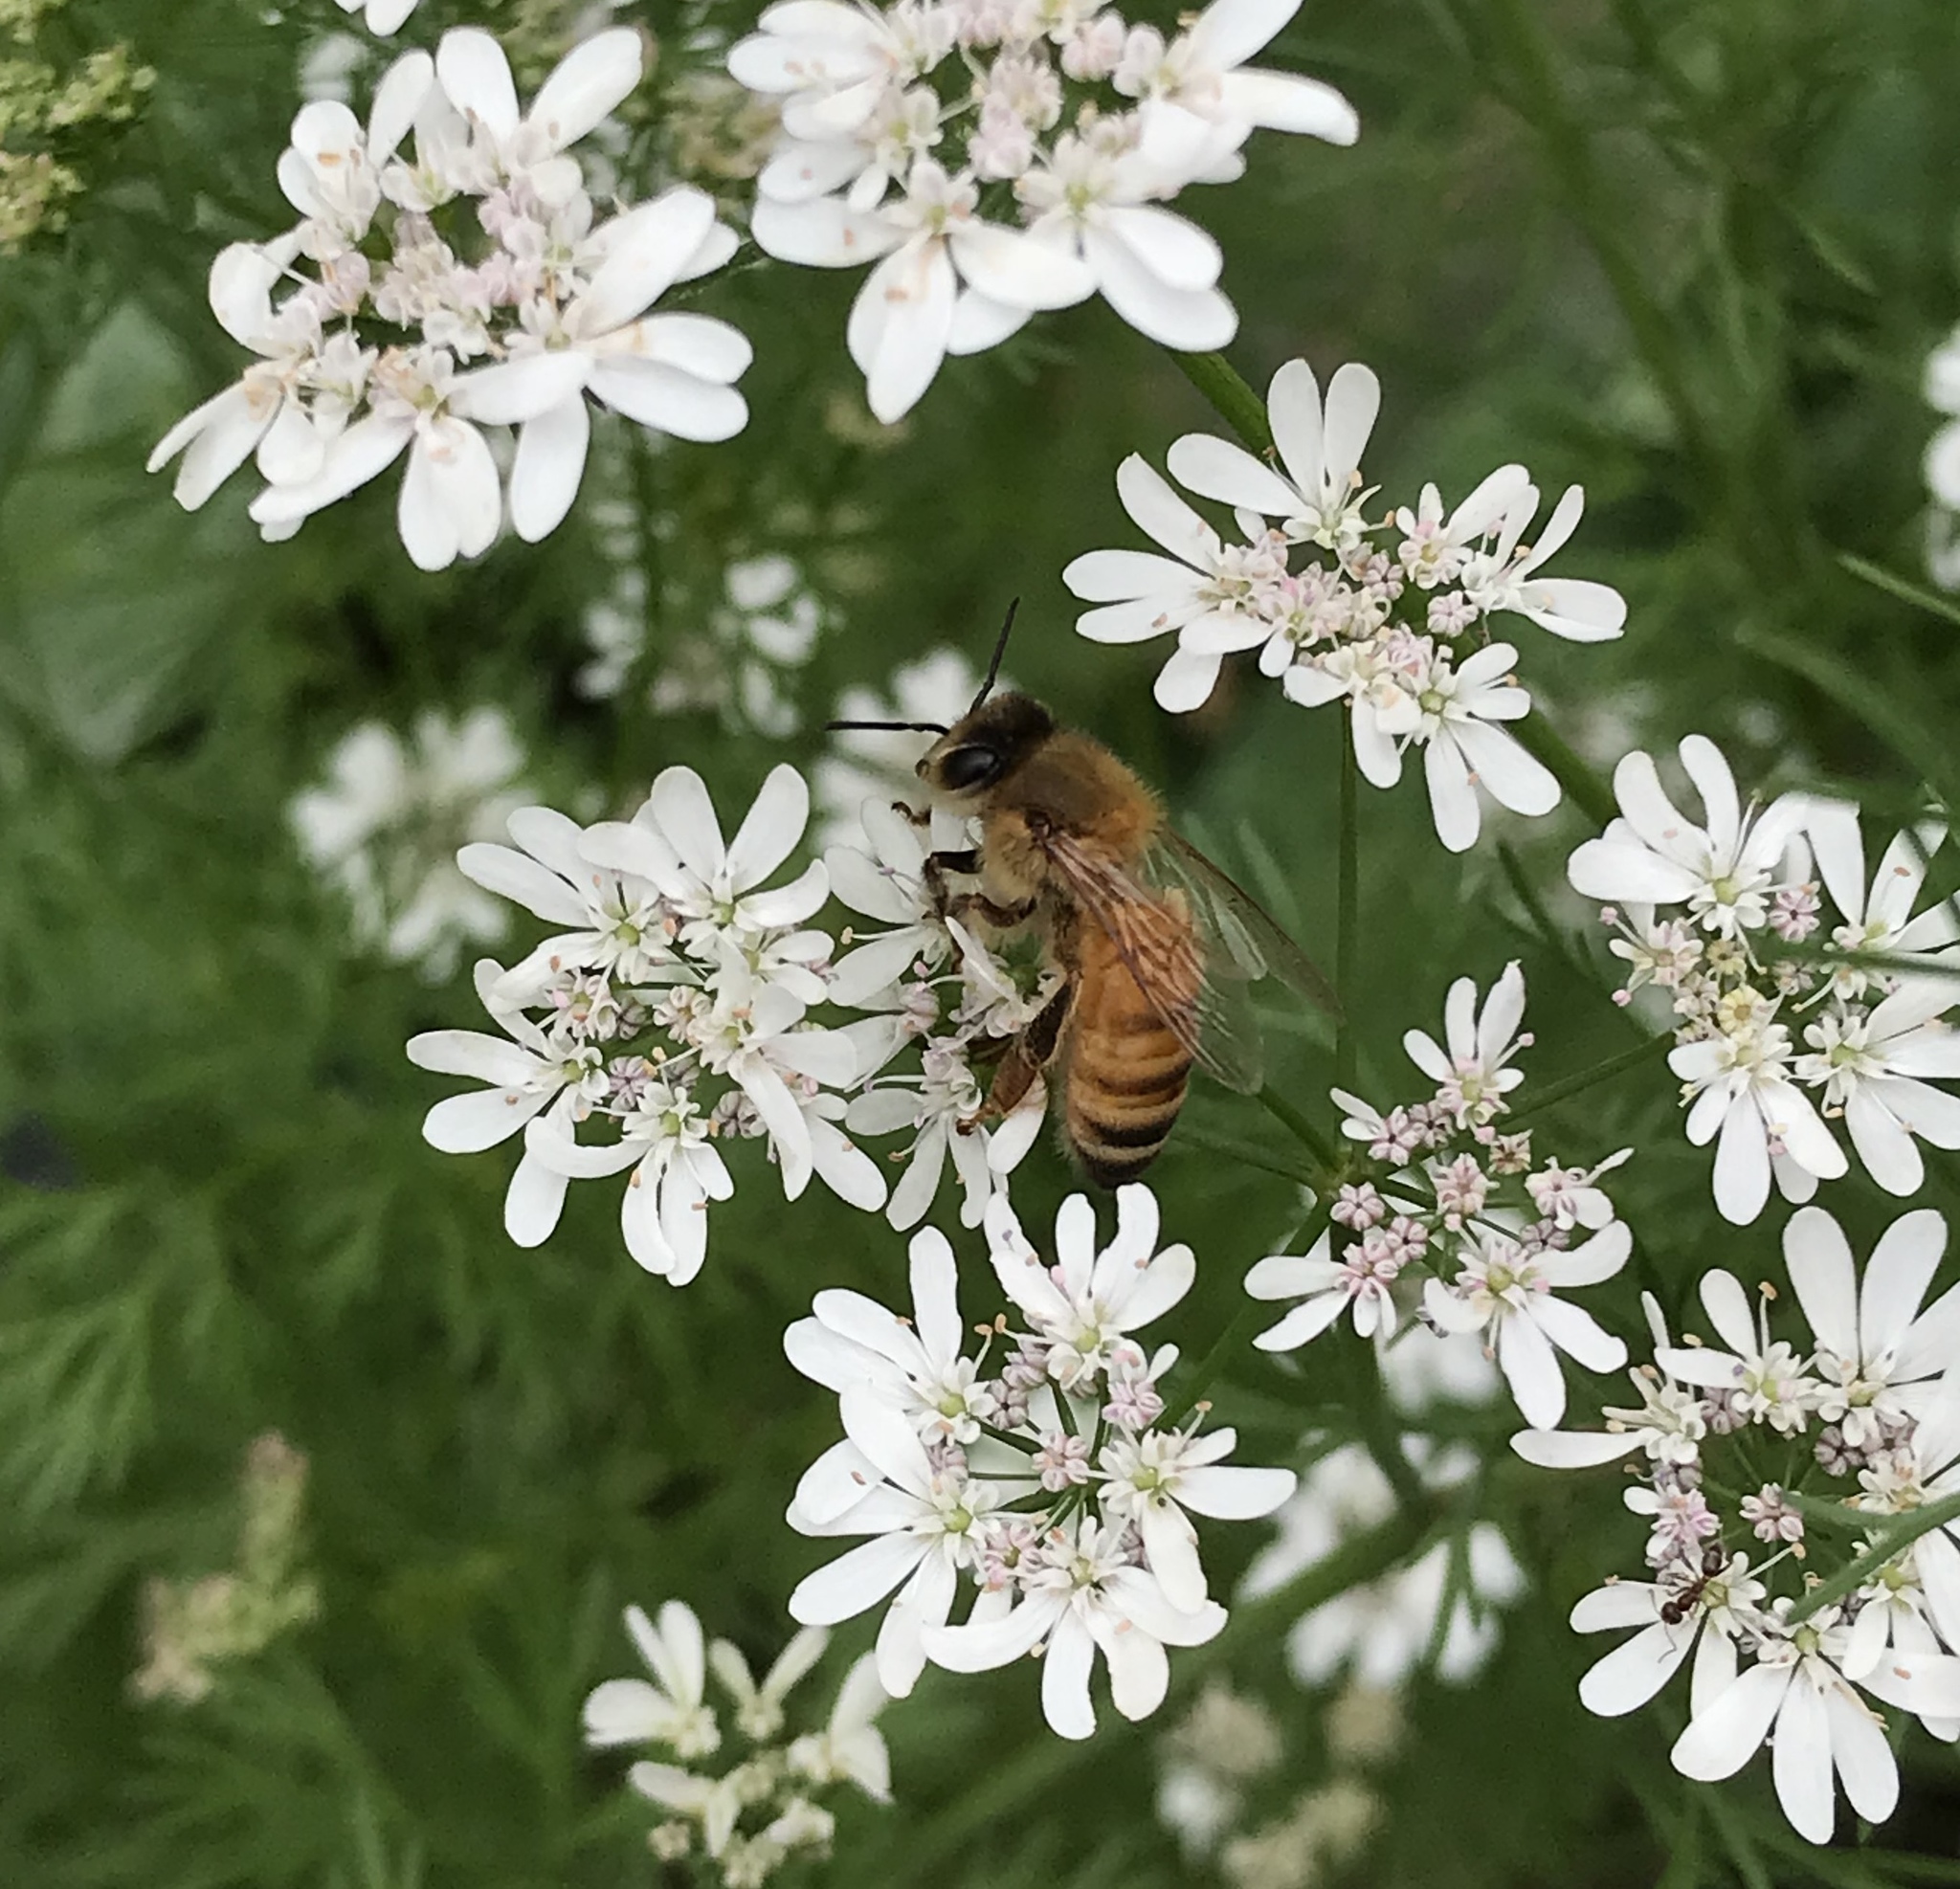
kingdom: Animalia
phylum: Arthropoda
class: Insecta
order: Hymenoptera
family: Apidae
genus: Apis
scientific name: Apis mellifera
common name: Honey bee
